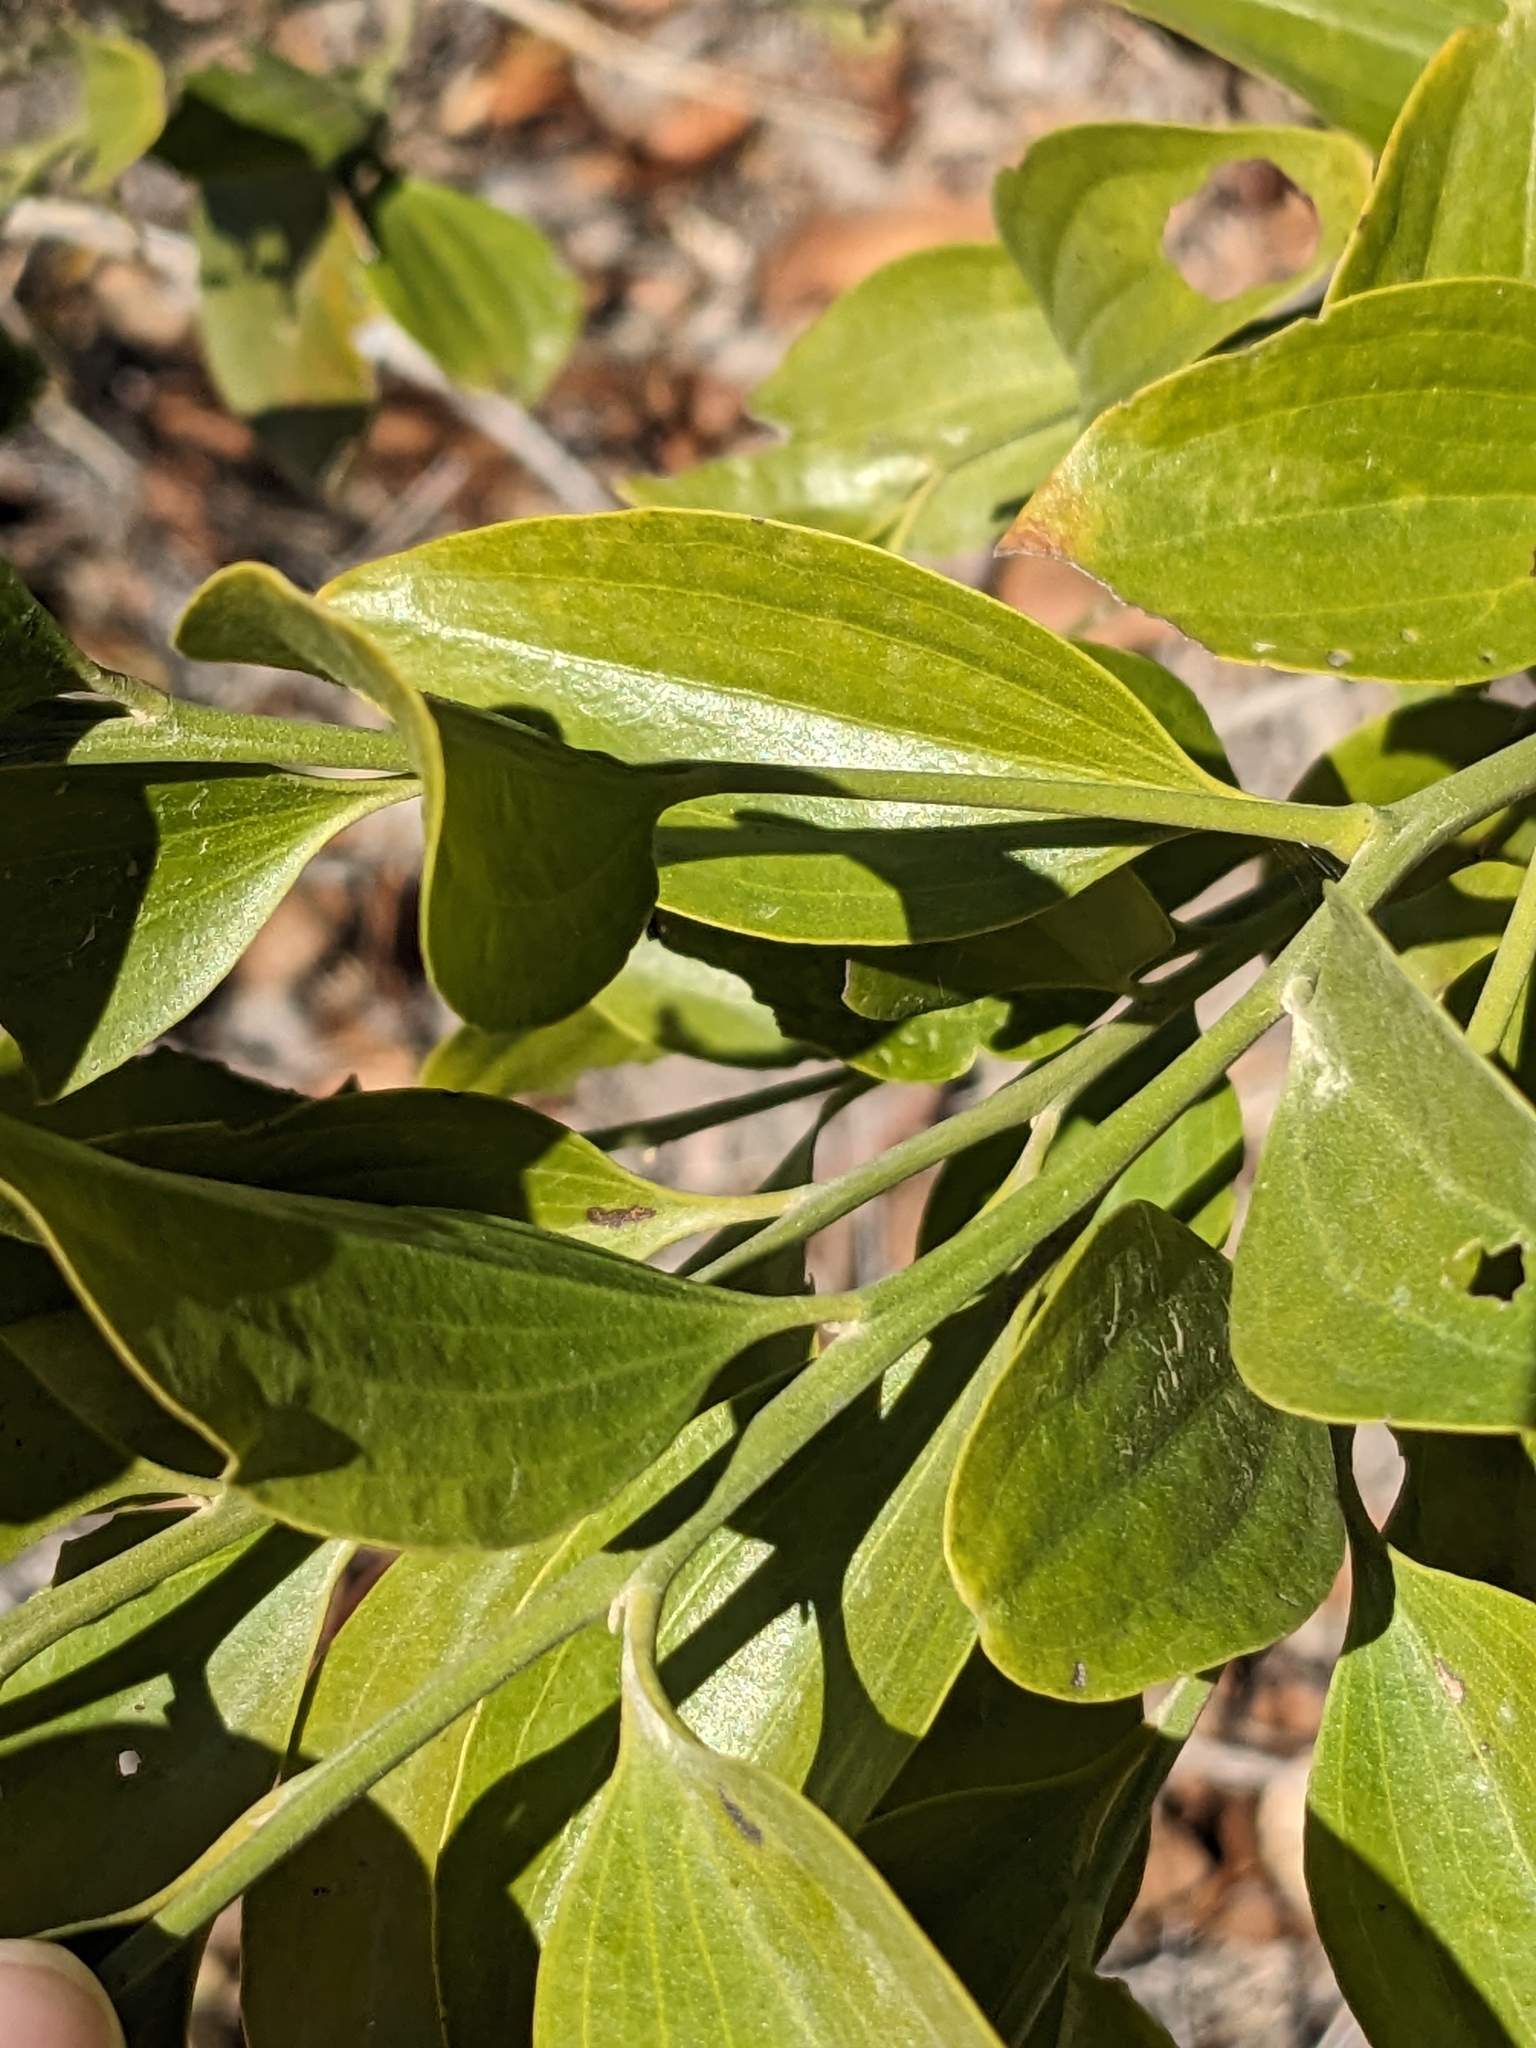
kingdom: Plantae
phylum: Tracheophyta
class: Magnoliopsida
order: Santalales
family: Santalaceae
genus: Exocarpos
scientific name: Exocarpos latifolius
